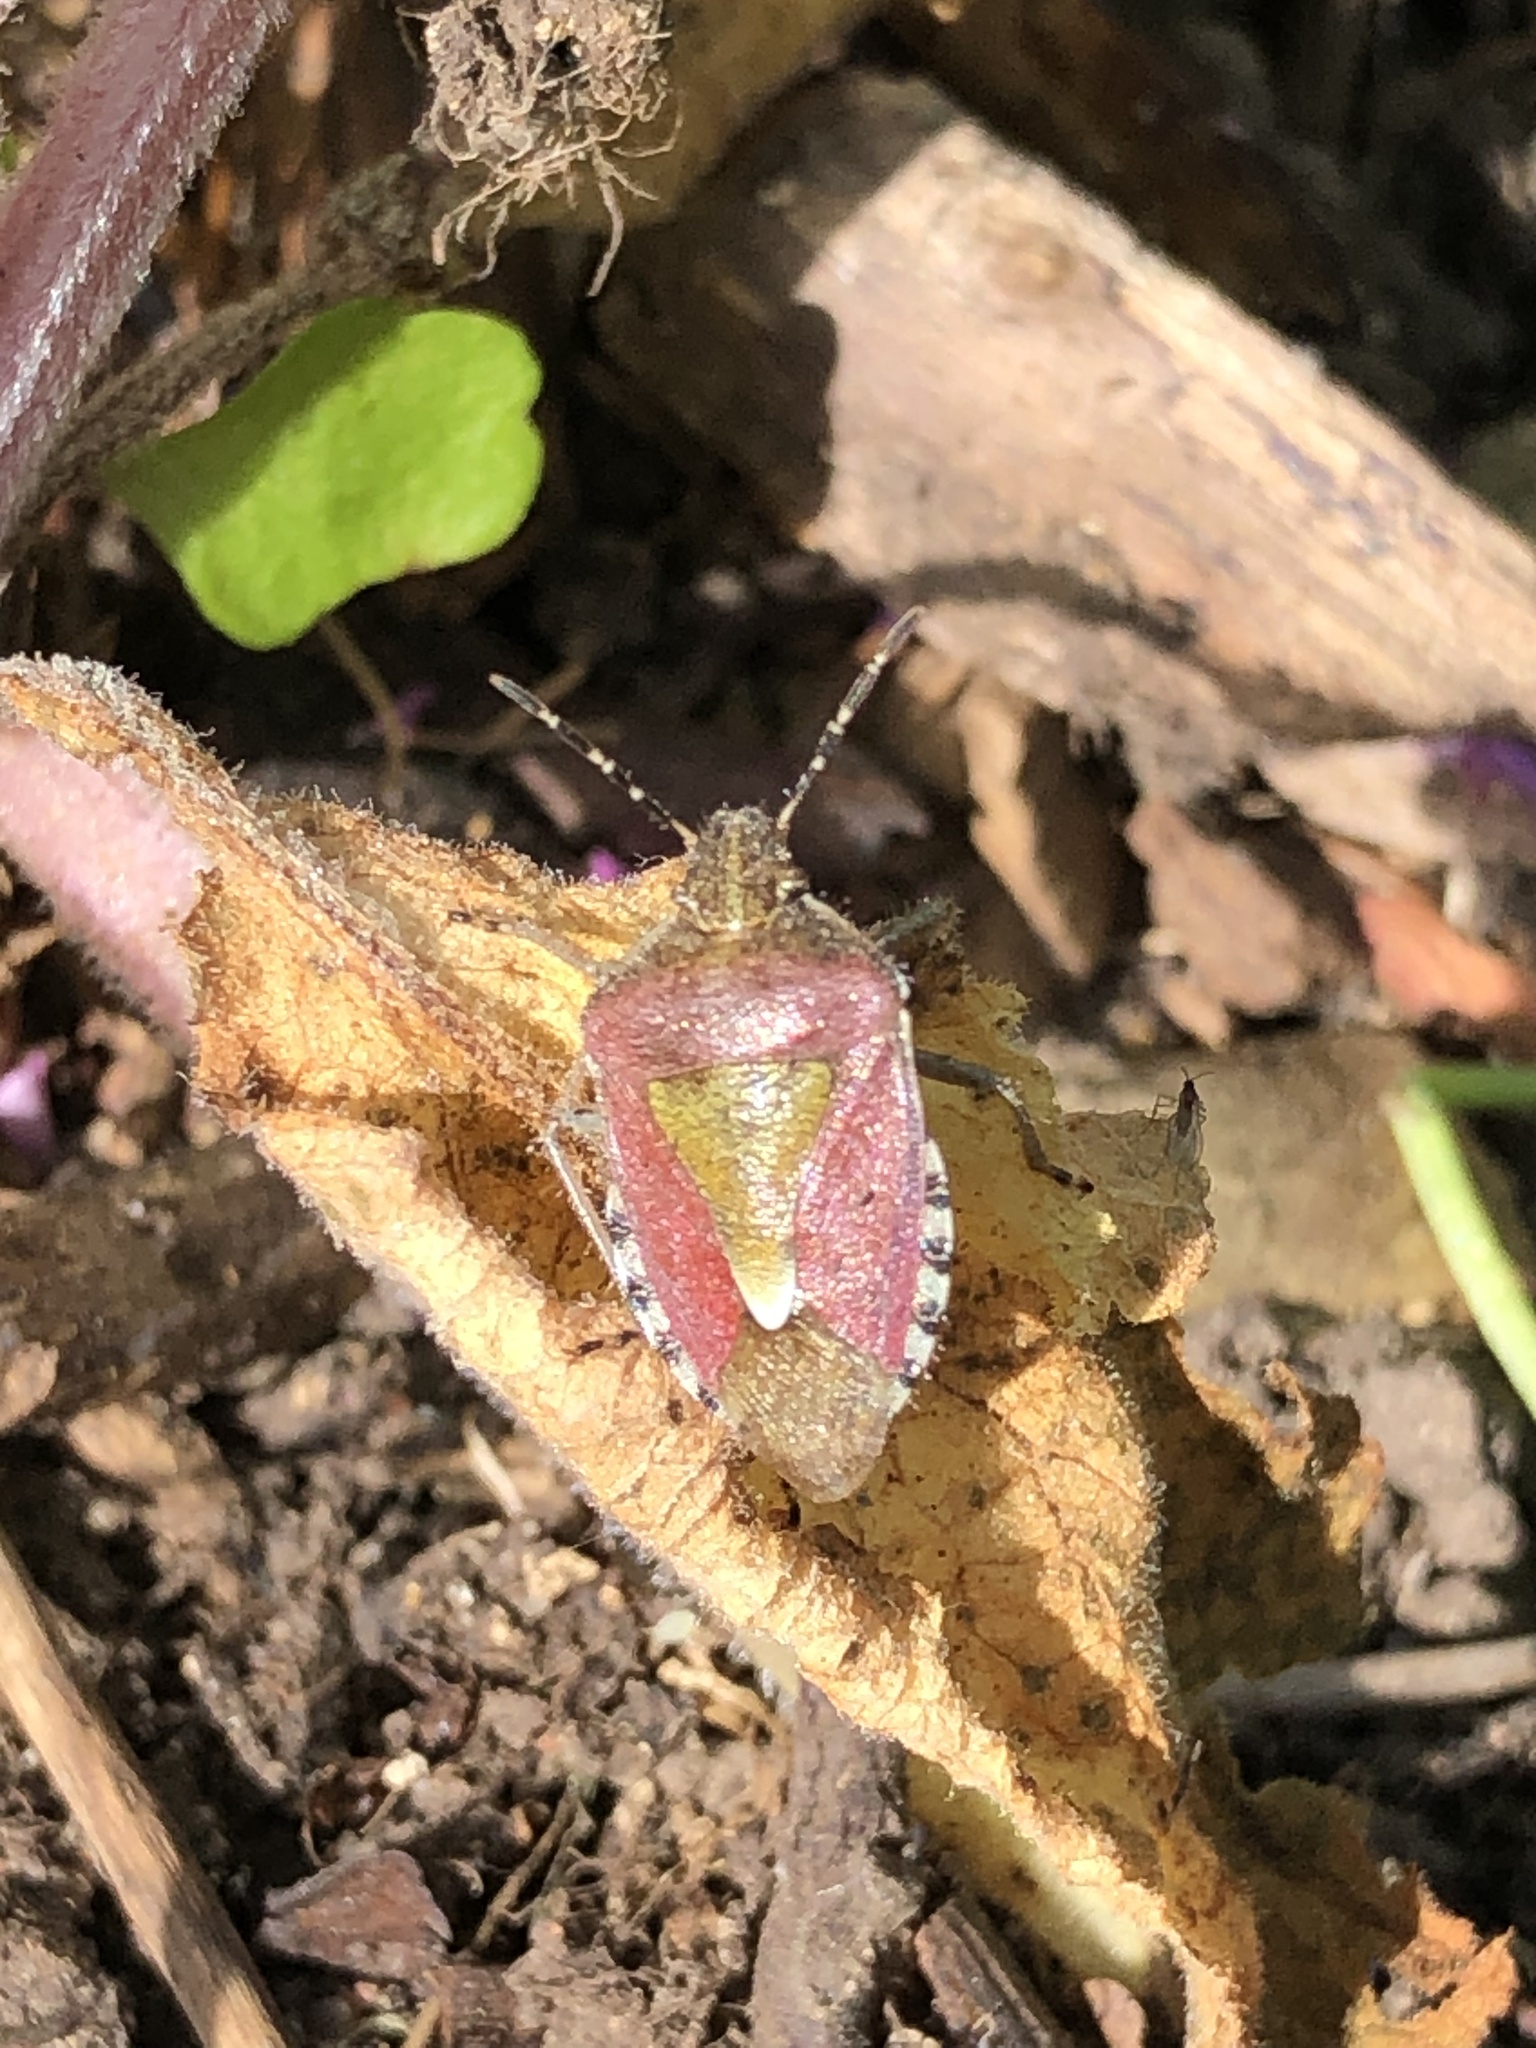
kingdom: Animalia
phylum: Arthropoda
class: Insecta
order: Hemiptera
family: Pentatomidae
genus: Dolycoris
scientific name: Dolycoris baccarum
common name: Sloe bug
